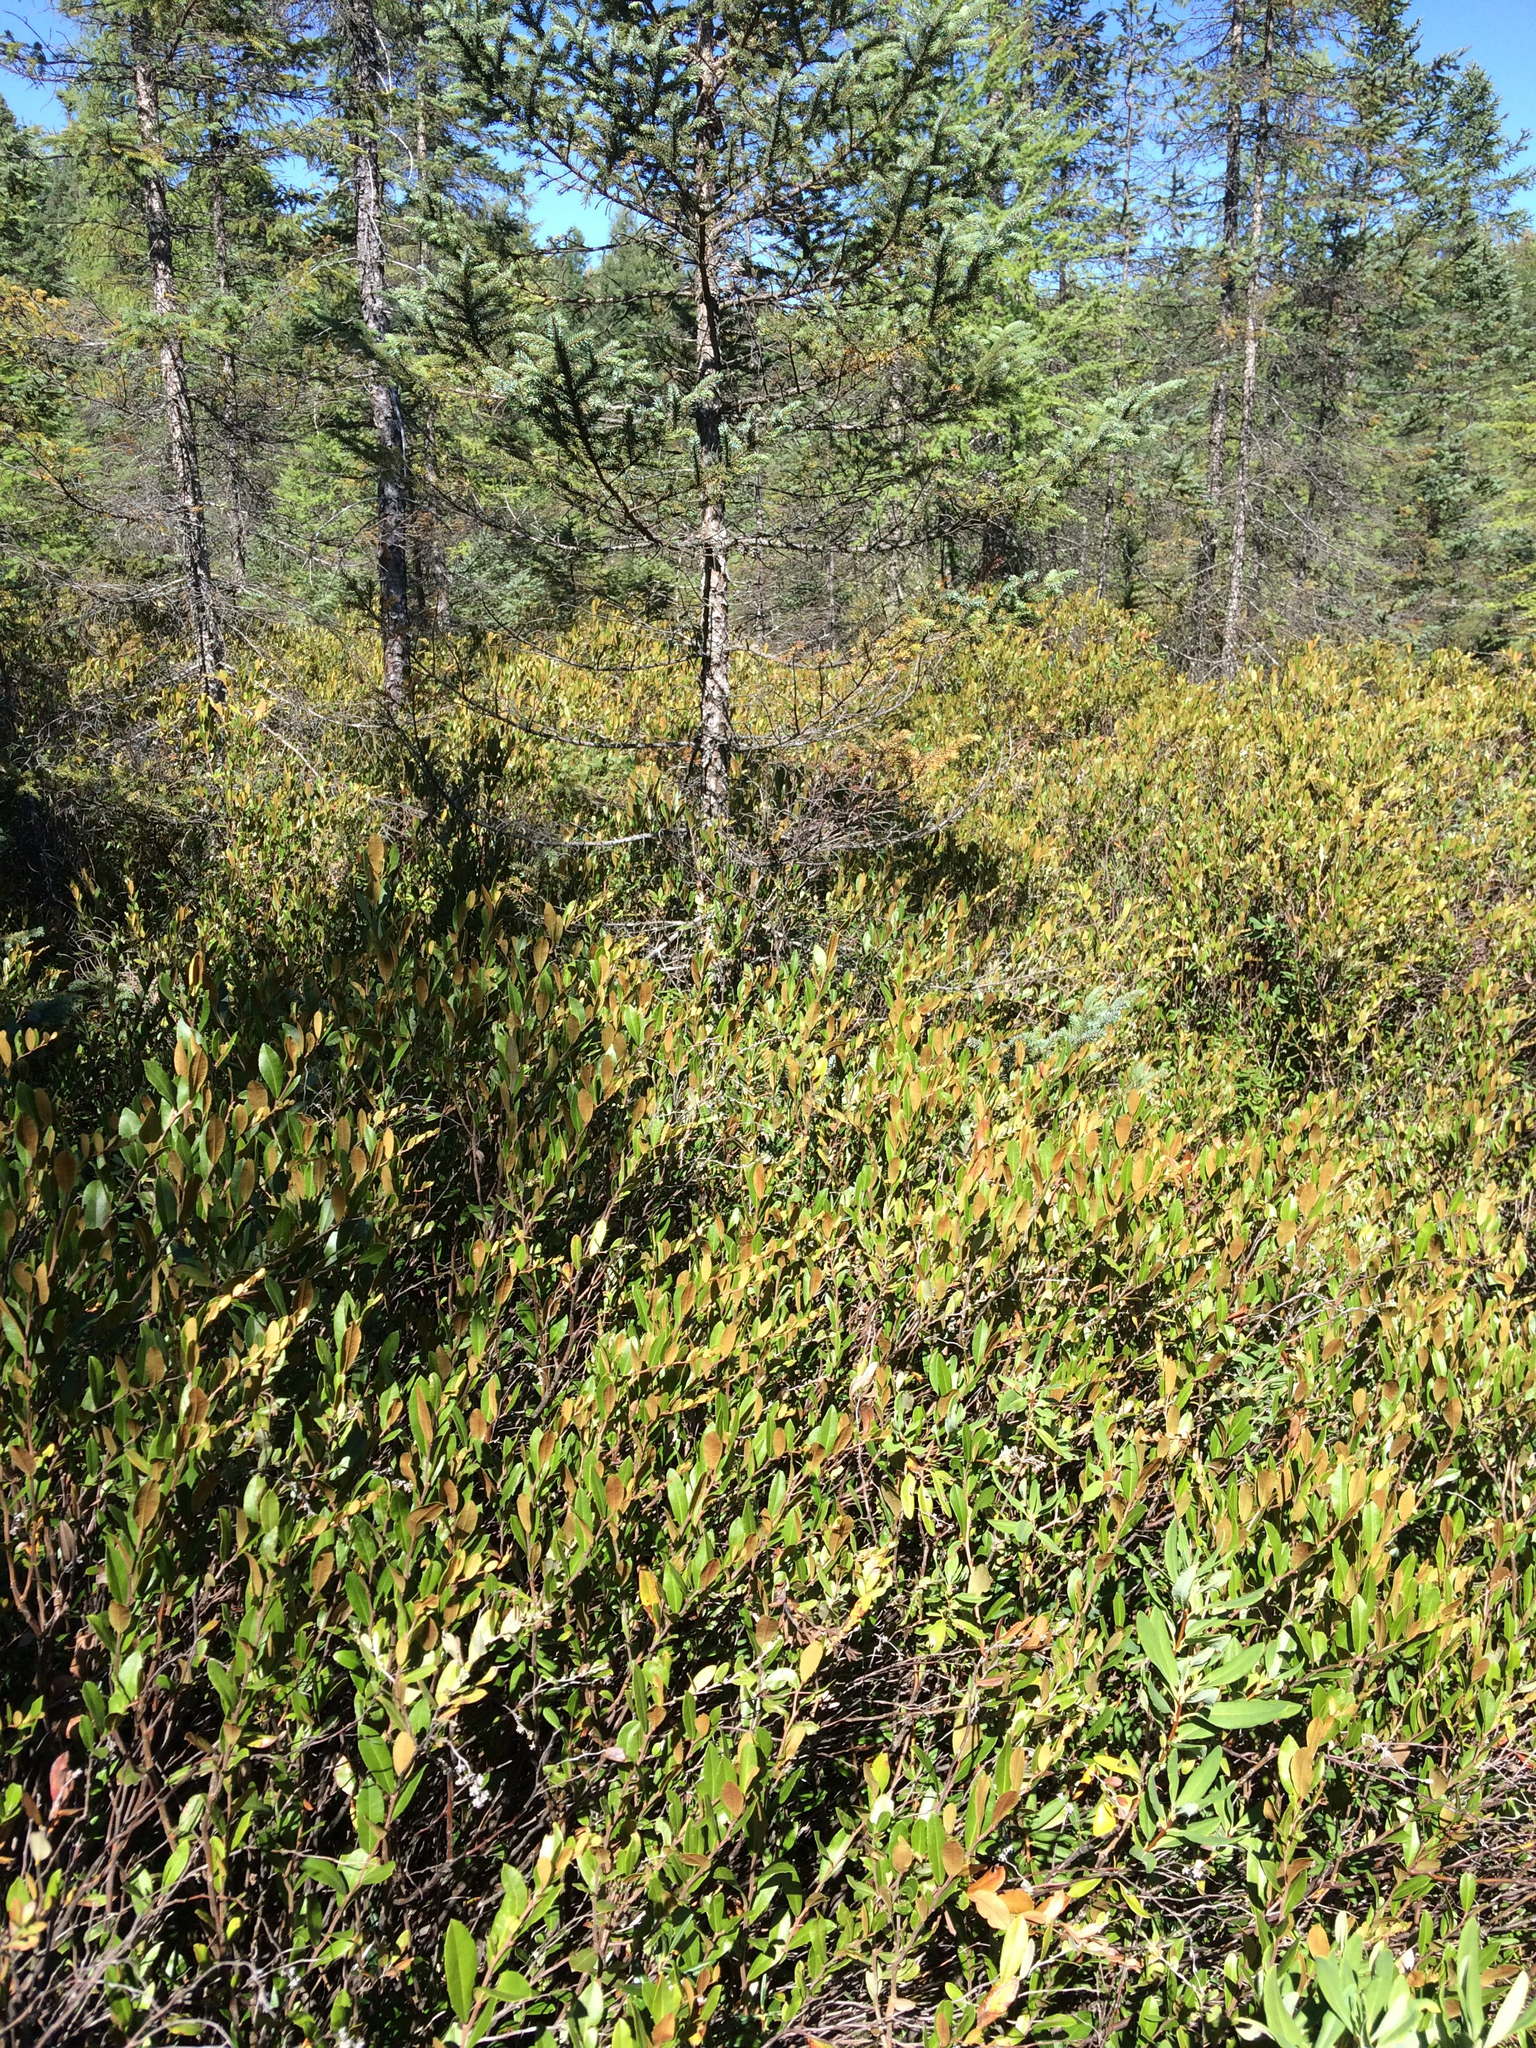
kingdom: Plantae
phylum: Tracheophyta
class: Magnoliopsida
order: Ericales
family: Ericaceae
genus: Chamaedaphne
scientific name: Chamaedaphne calyculata
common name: Leatherleaf
